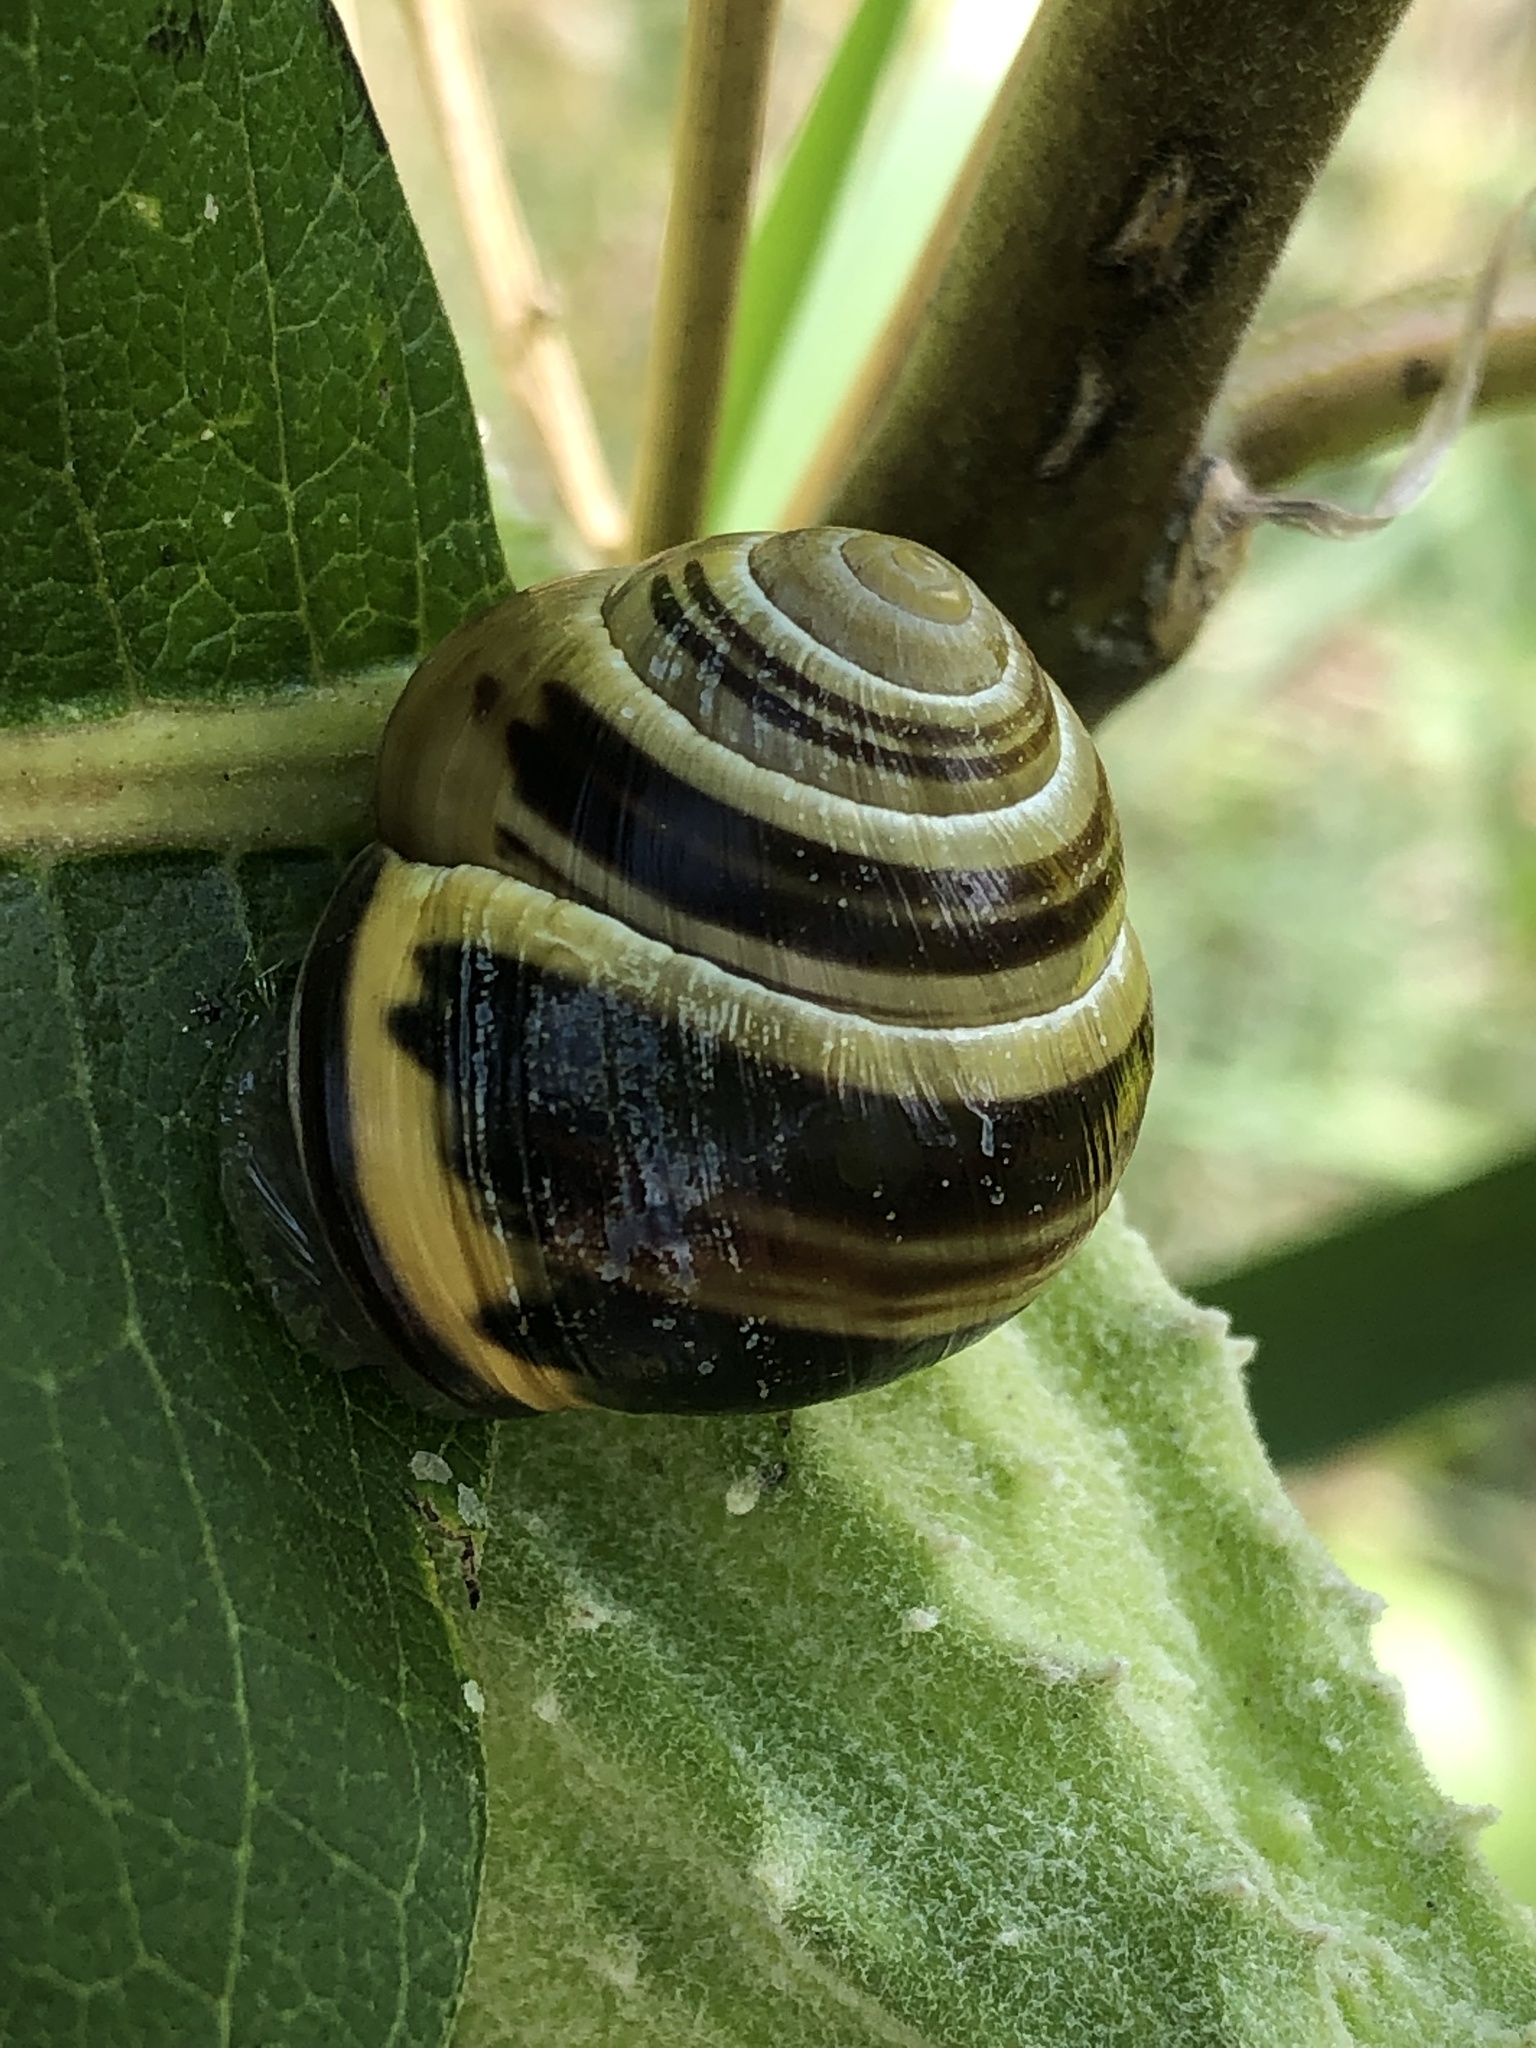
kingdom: Animalia
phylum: Mollusca
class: Gastropoda
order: Stylommatophora
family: Helicidae
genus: Cepaea
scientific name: Cepaea nemoralis
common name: Grovesnail
